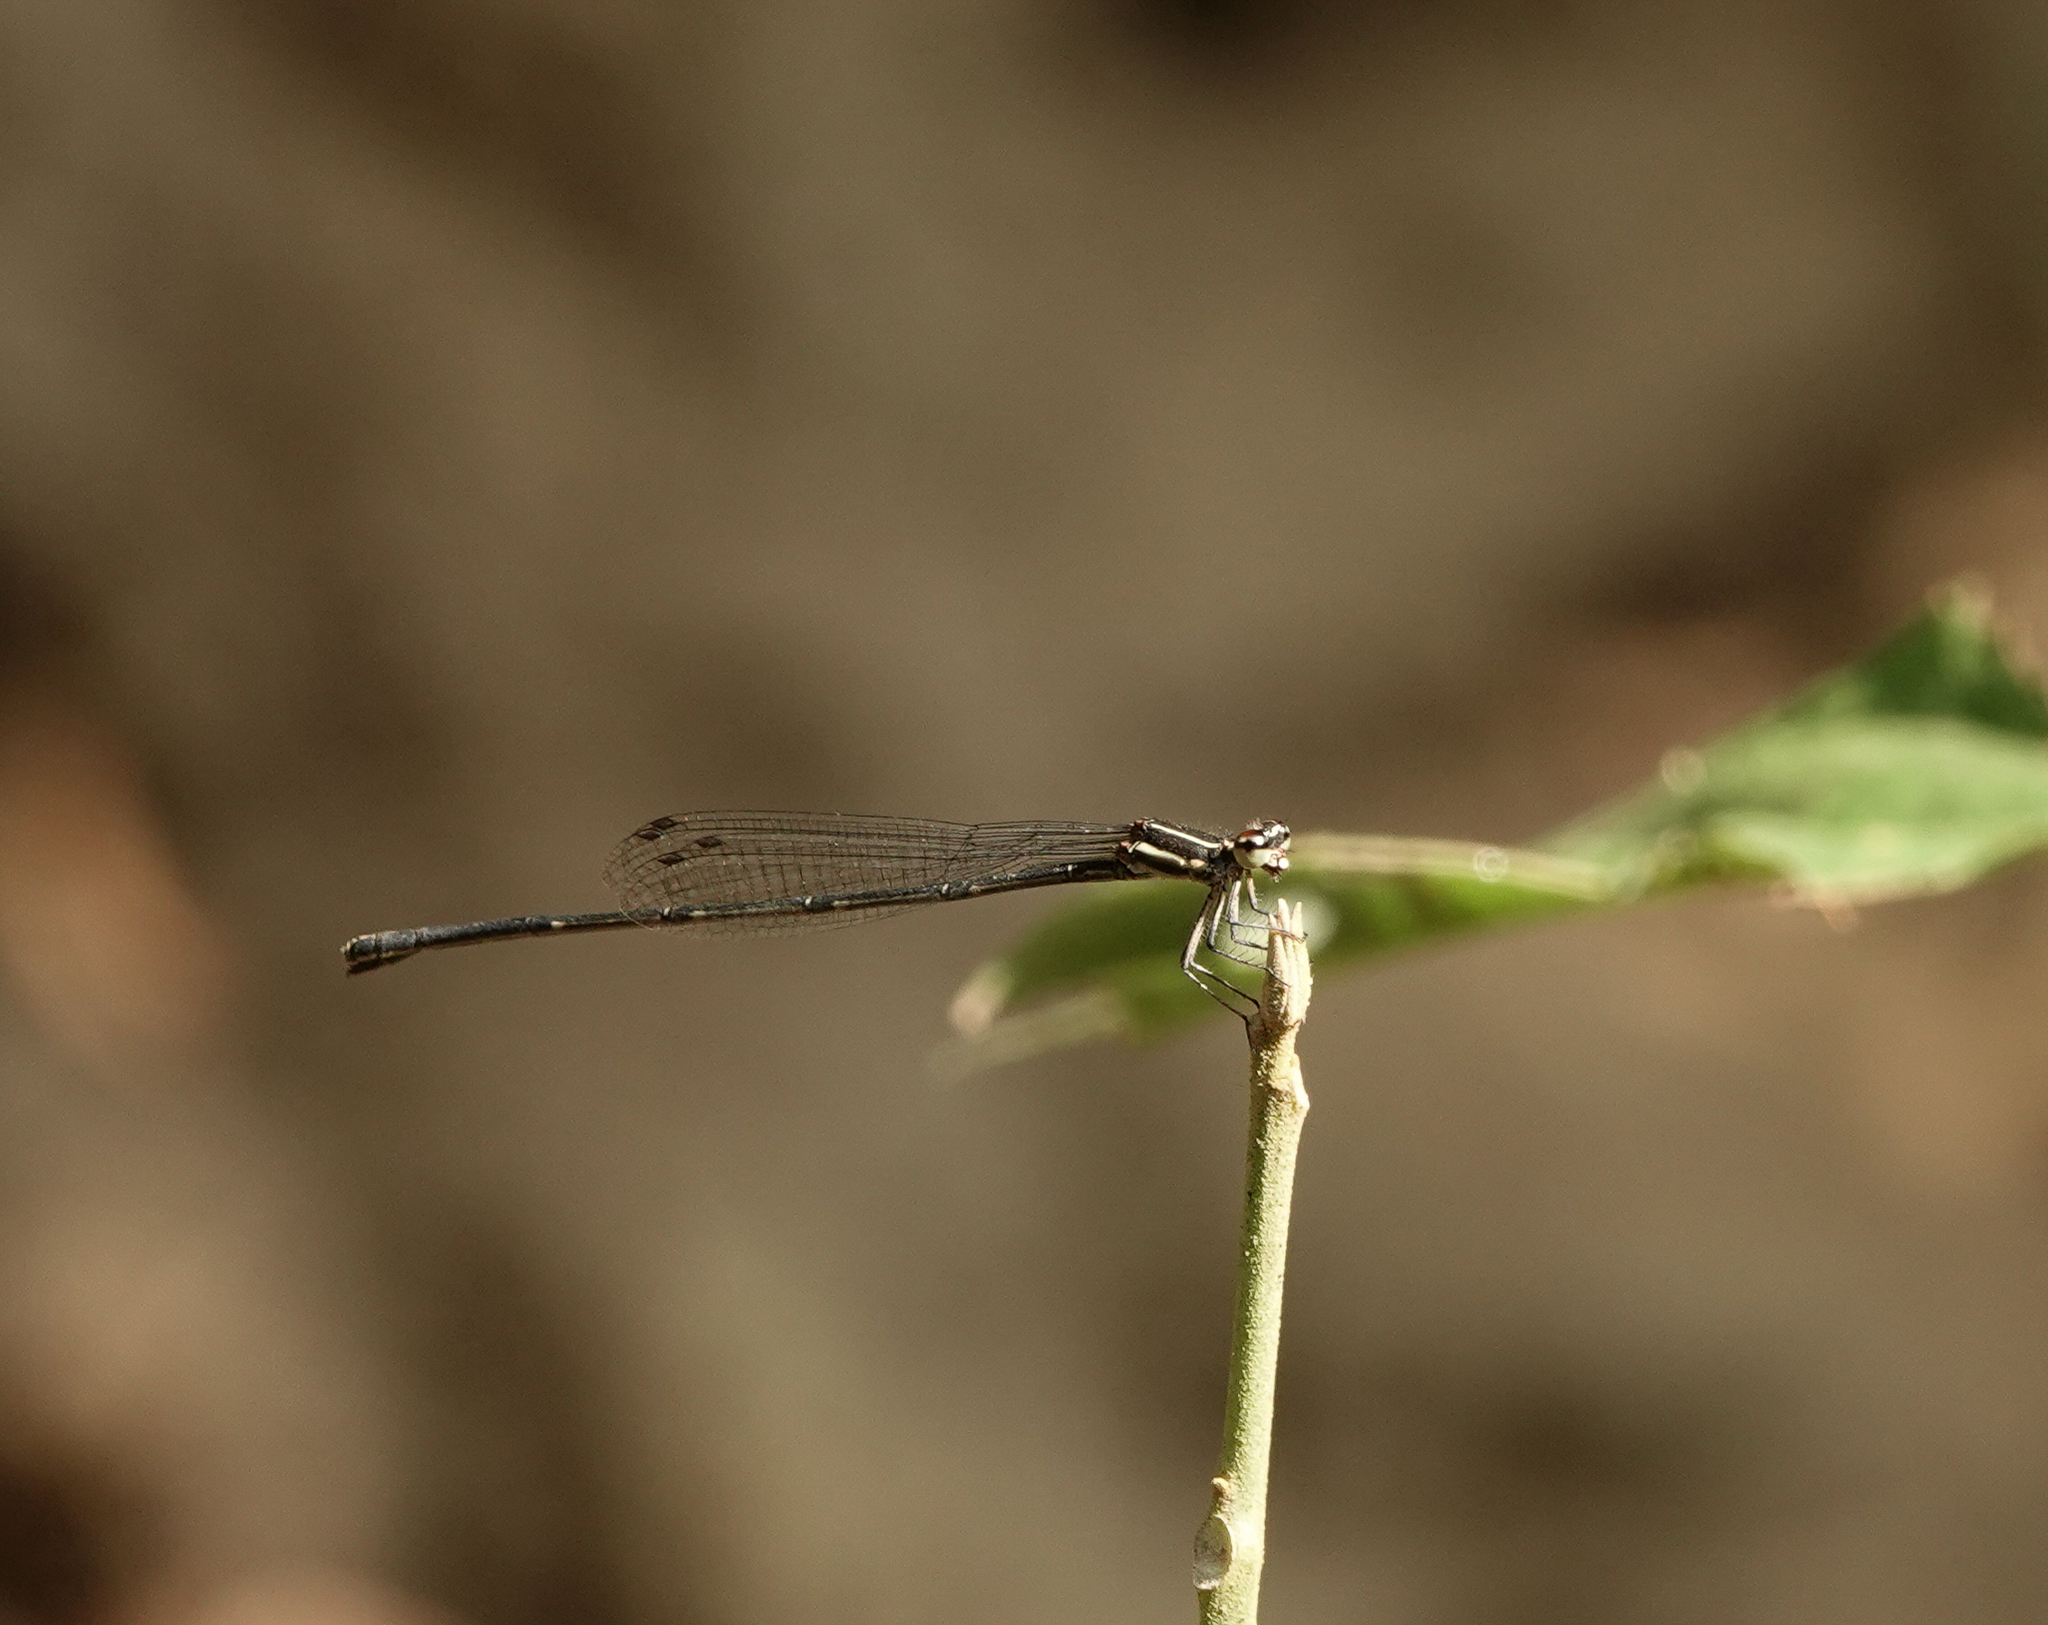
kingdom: Animalia
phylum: Arthropoda
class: Insecta
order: Odonata
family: Platycnemididae
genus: Prodasineura
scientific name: Prodasineura verticalis
